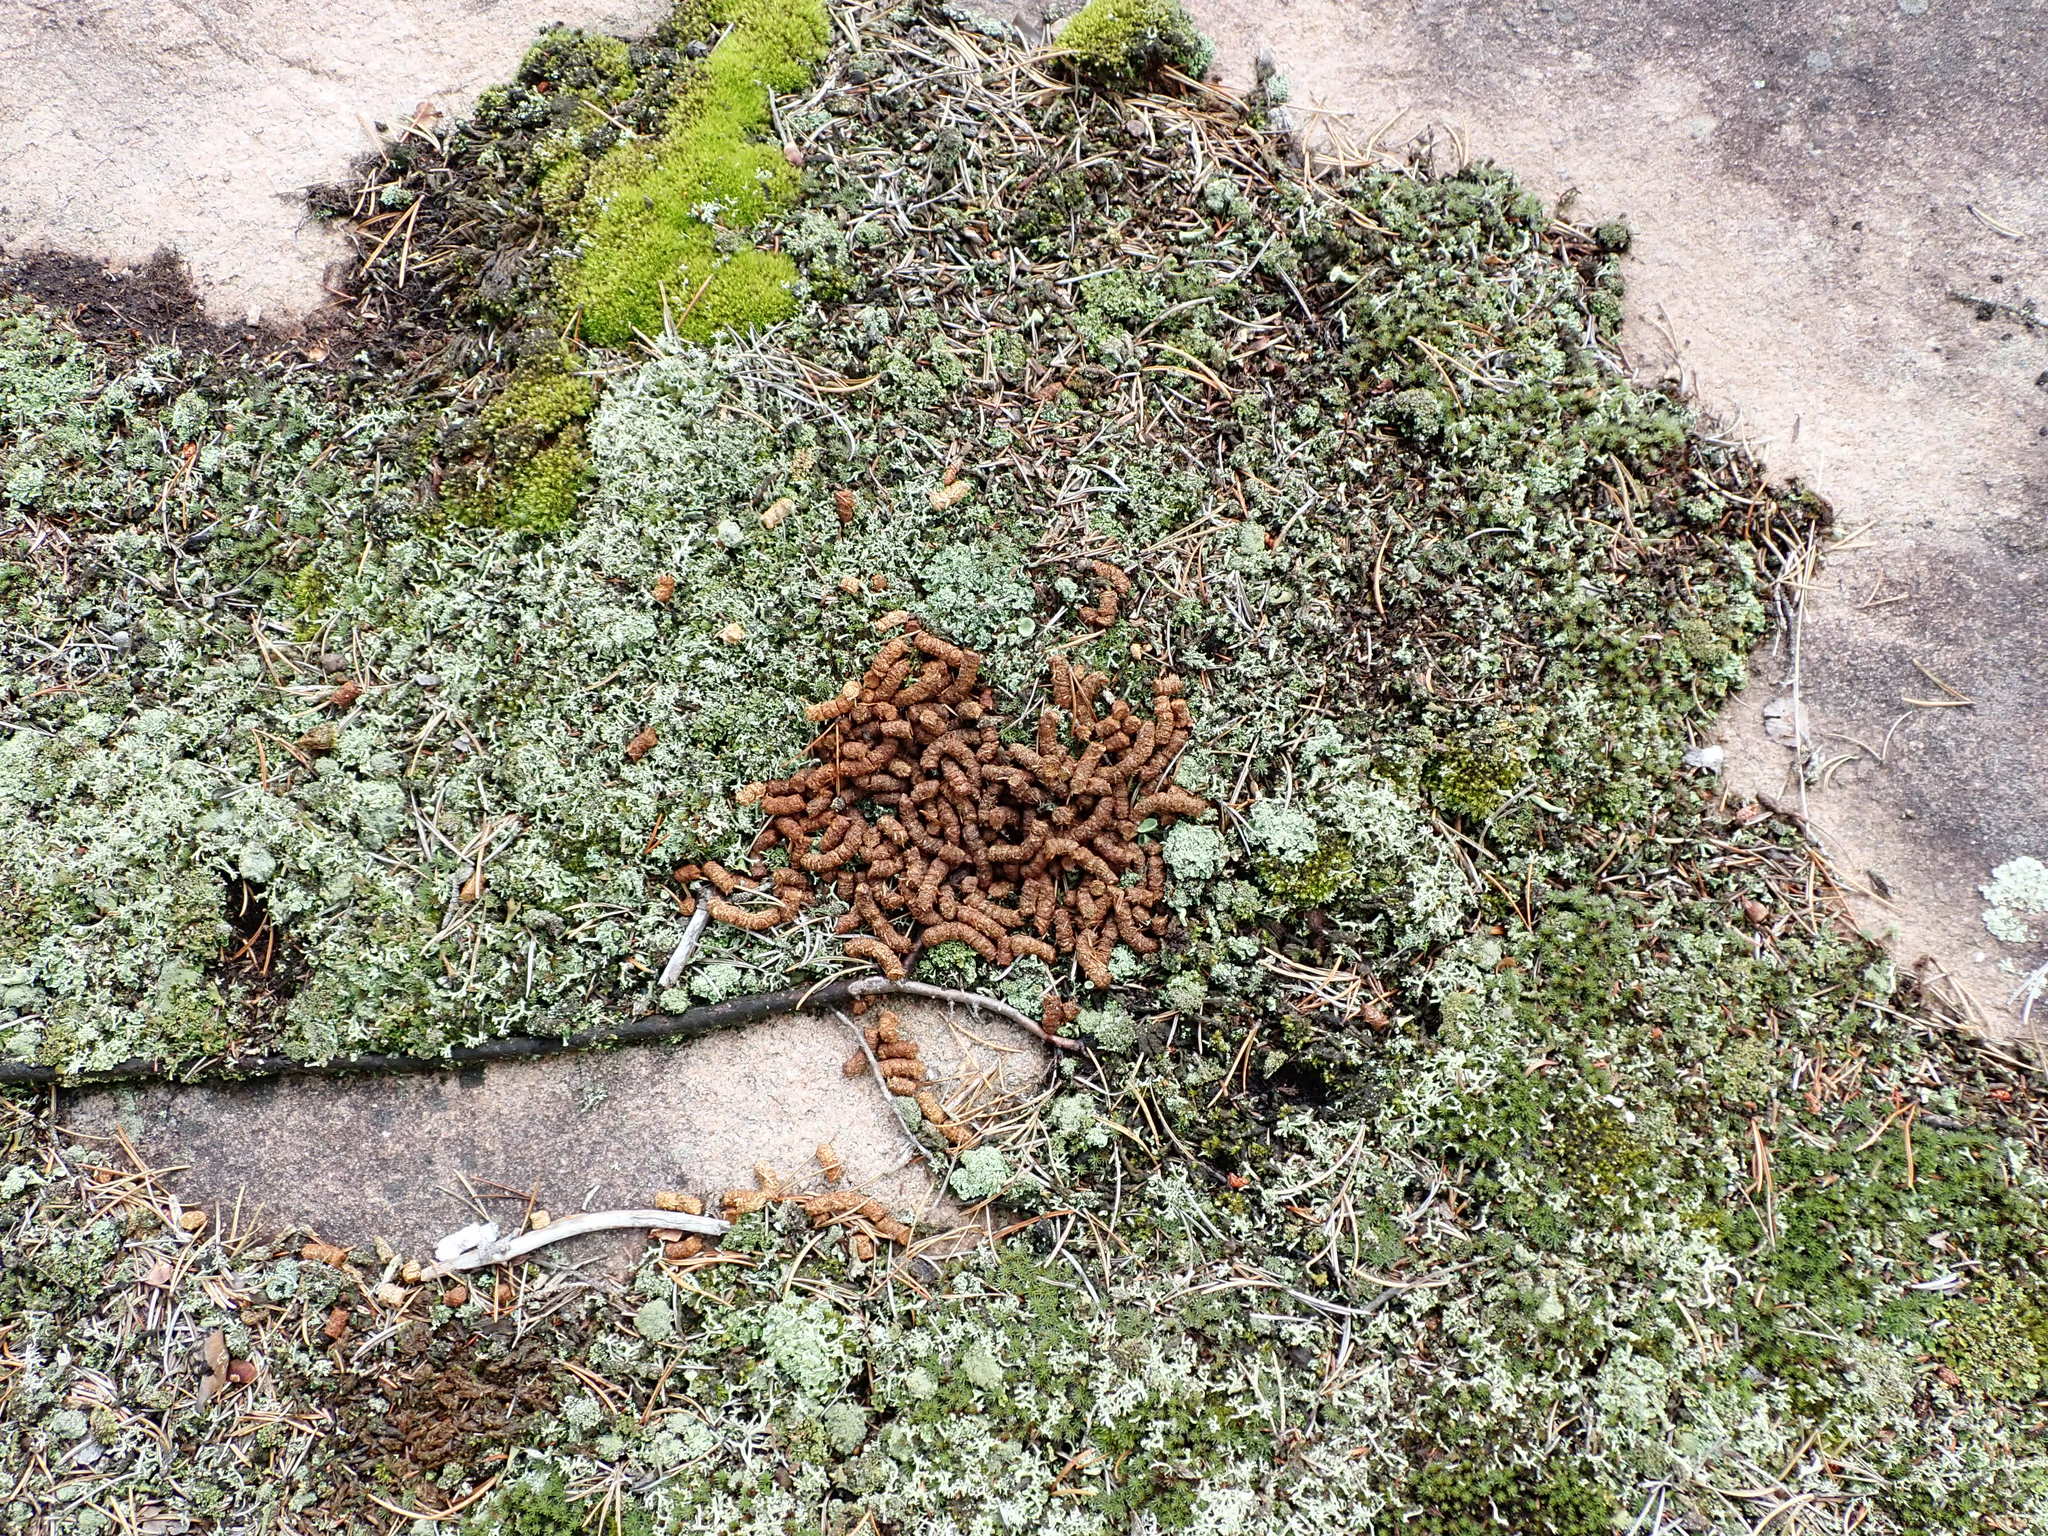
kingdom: Animalia
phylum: Chordata
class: Aves
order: Galliformes
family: Phasianidae
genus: Bonasa
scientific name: Bonasa umbellus
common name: Ruffed grouse
